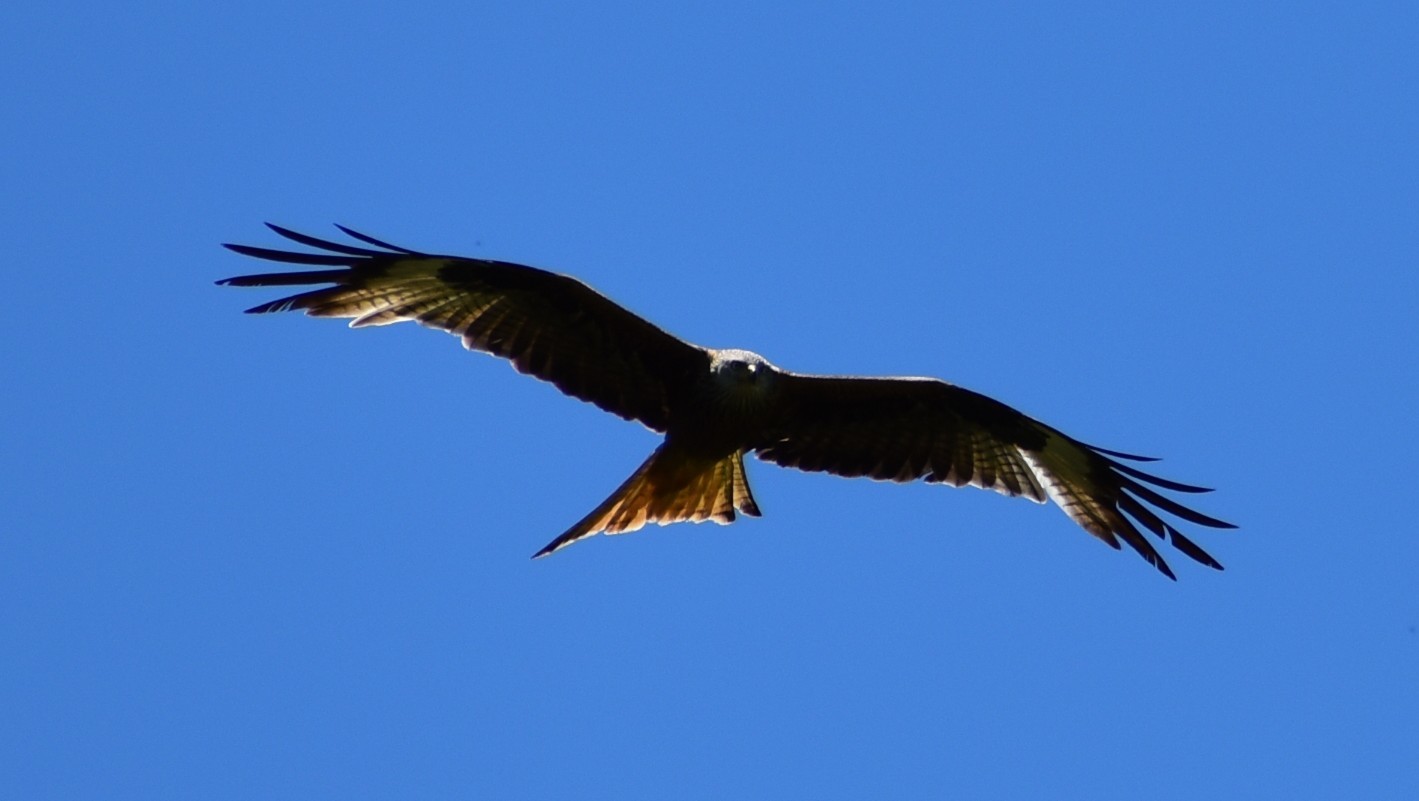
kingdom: Animalia
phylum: Chordata
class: Aves
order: Accipitriformes
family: Accipitridae
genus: Milvus
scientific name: Milvus milvus
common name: Red kite
